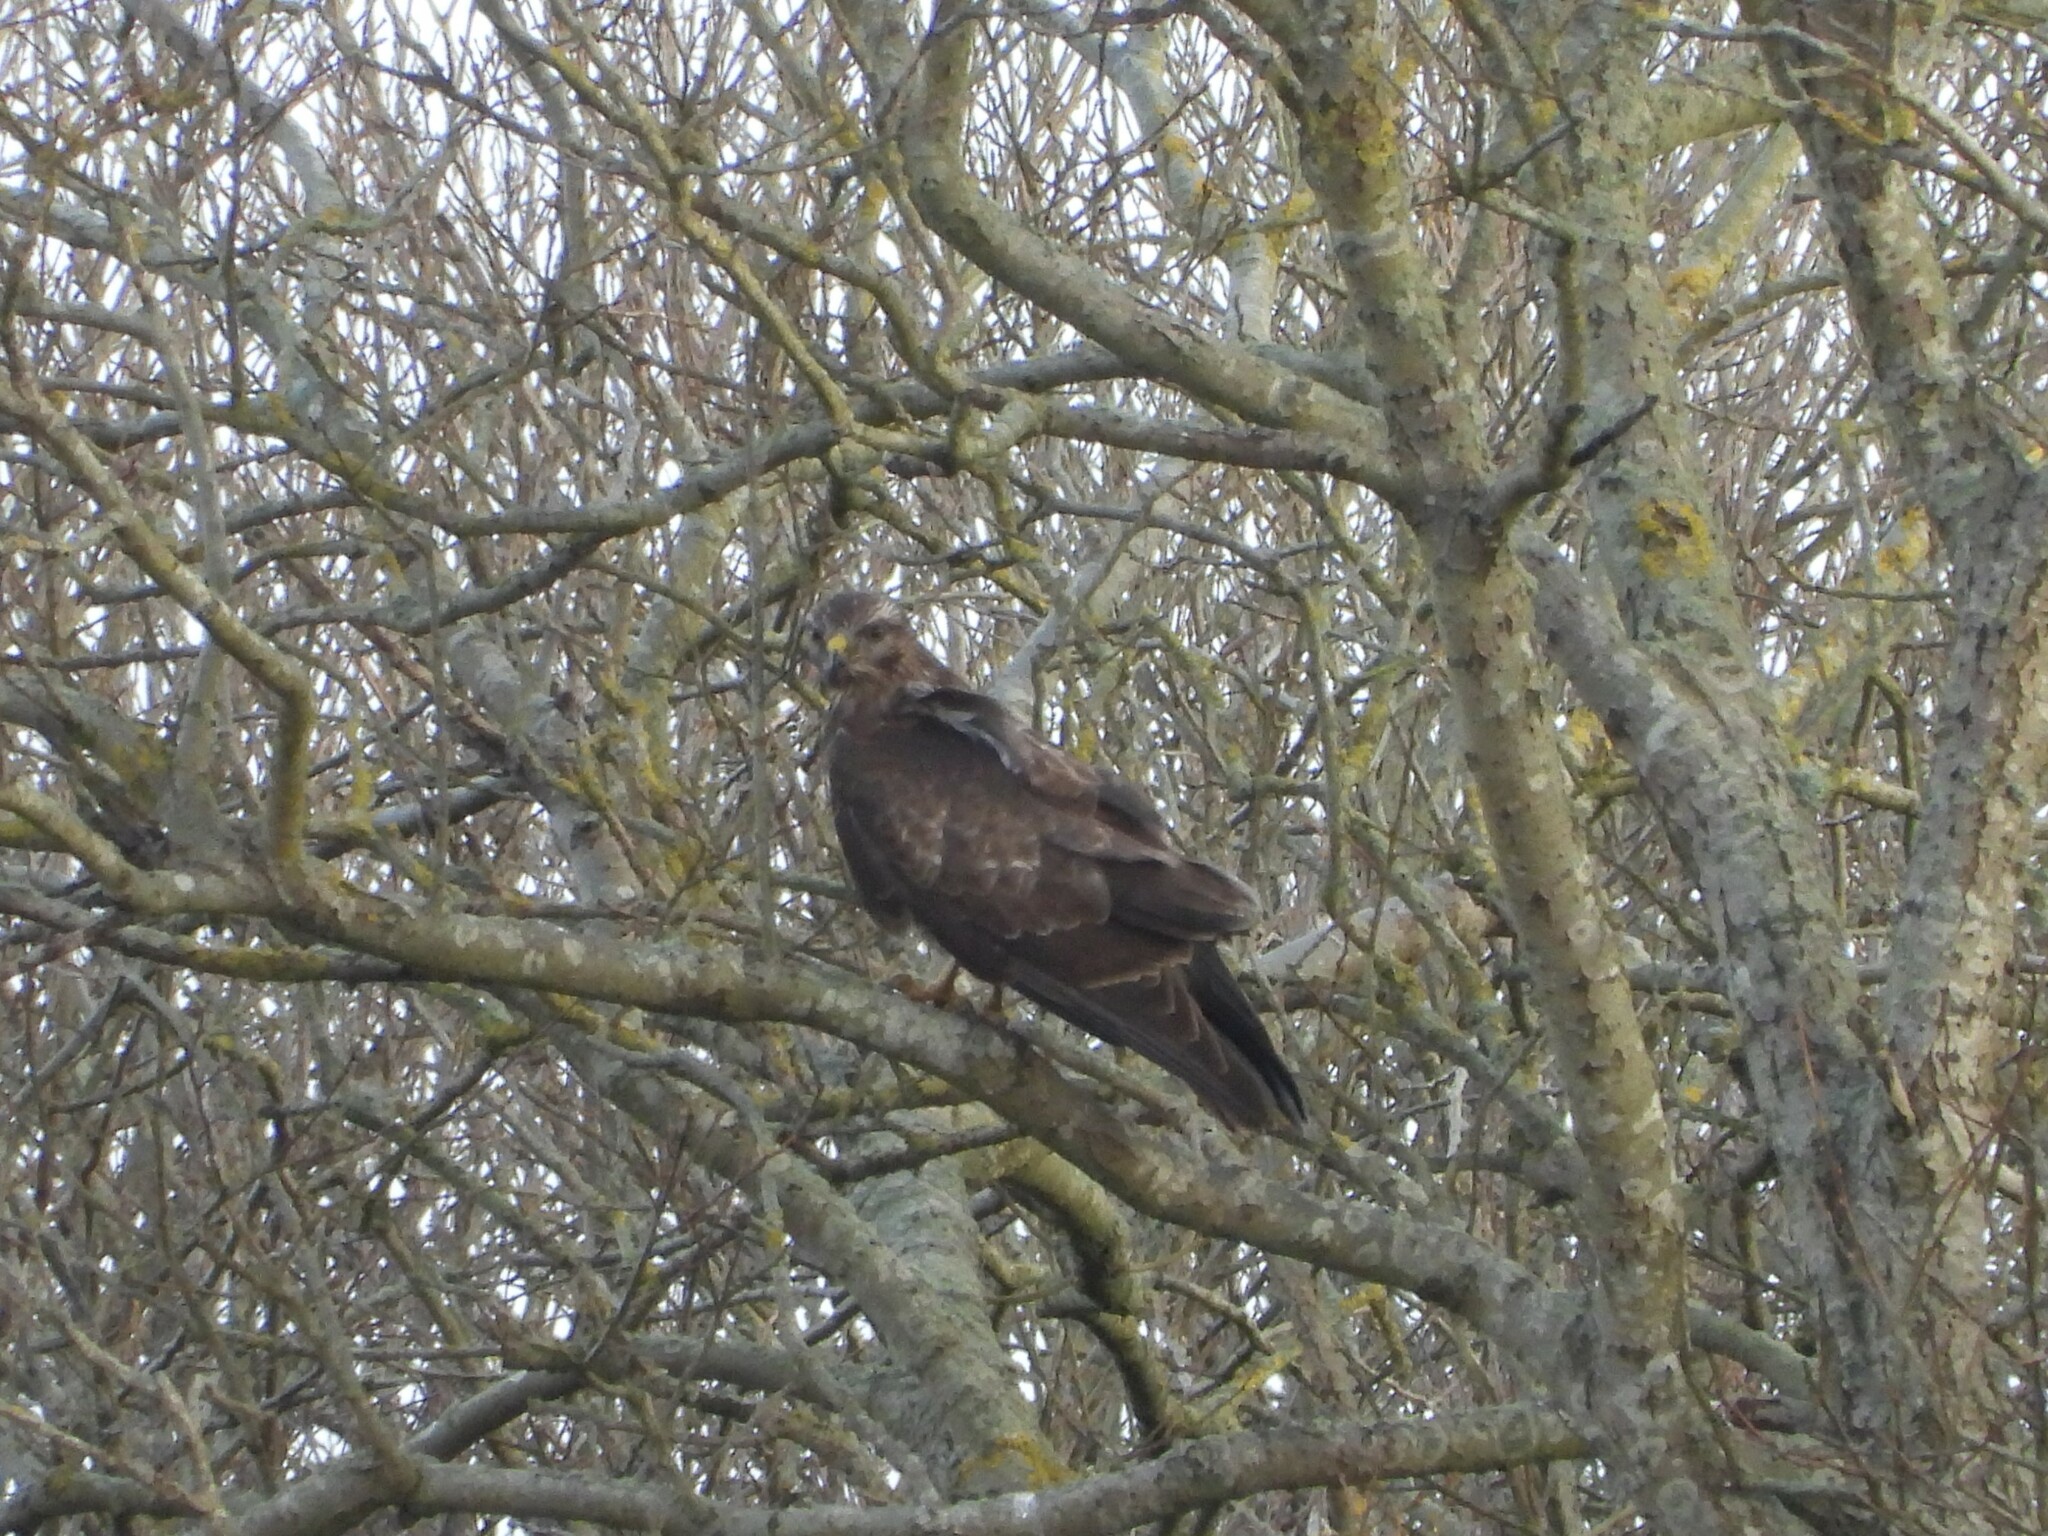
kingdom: Animalia
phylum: Chordata
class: Aves
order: Accipitriformes
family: Accipitridae
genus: Buteo
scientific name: Buteo buteo
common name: Common buzzard
